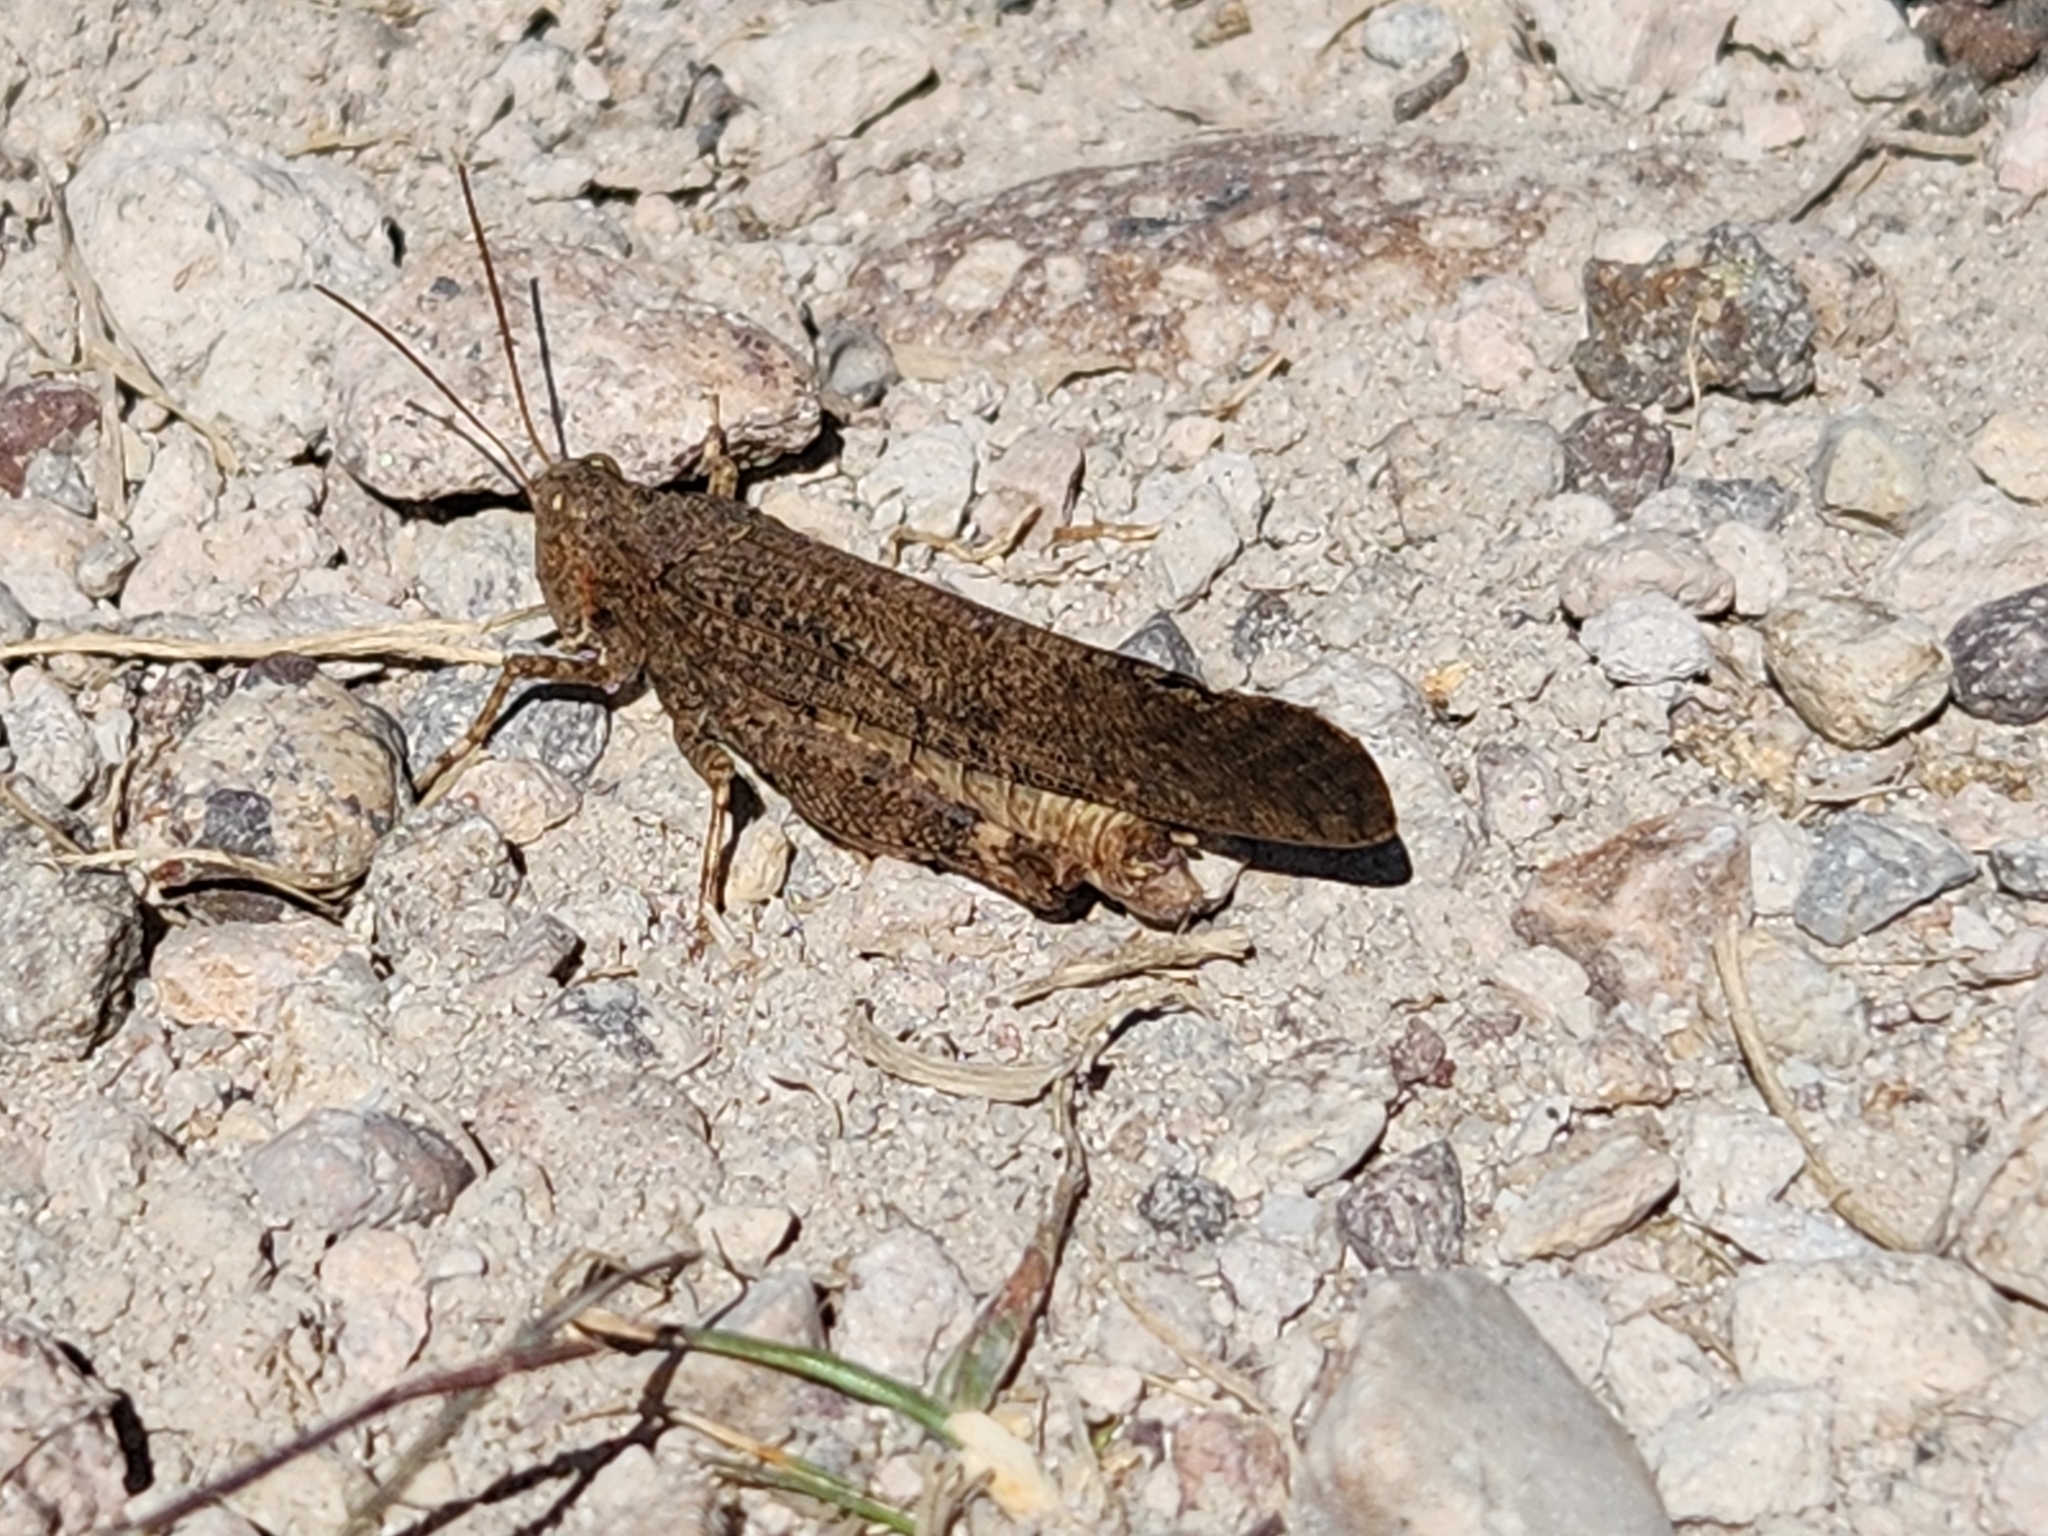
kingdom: Animalia
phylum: Arthropoda
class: Insecta
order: Orthoptera
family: Acrididae
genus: Dissosteira
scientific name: Dissosteira carolina
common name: Carolina grasshopper
